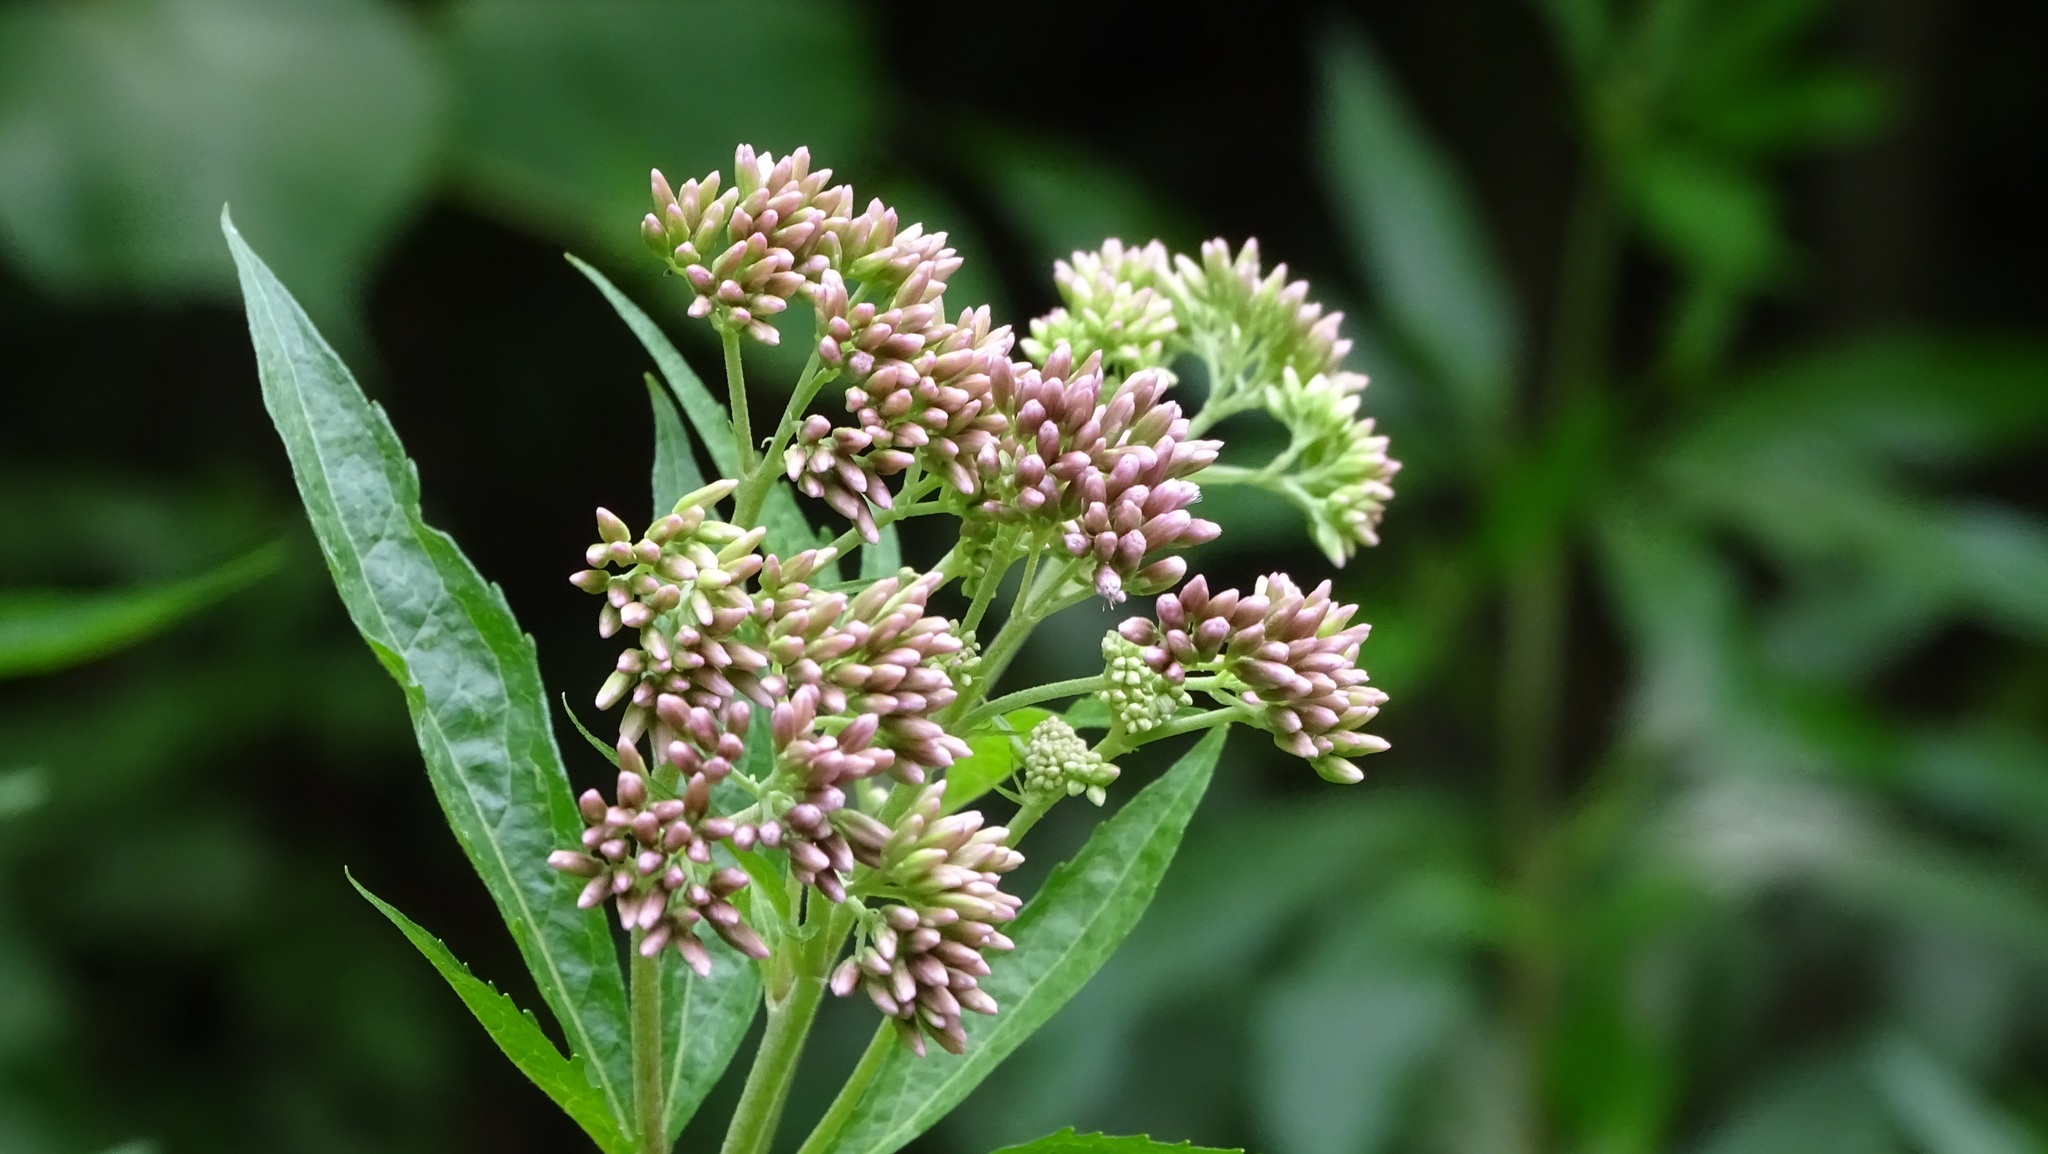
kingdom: Plantae
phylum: Tracheophyta
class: Magnoliopsida
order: Asterales
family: Asteraceae
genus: Eupatorium
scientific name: Eupatorium cannabinum
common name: Hemp-agrimony
